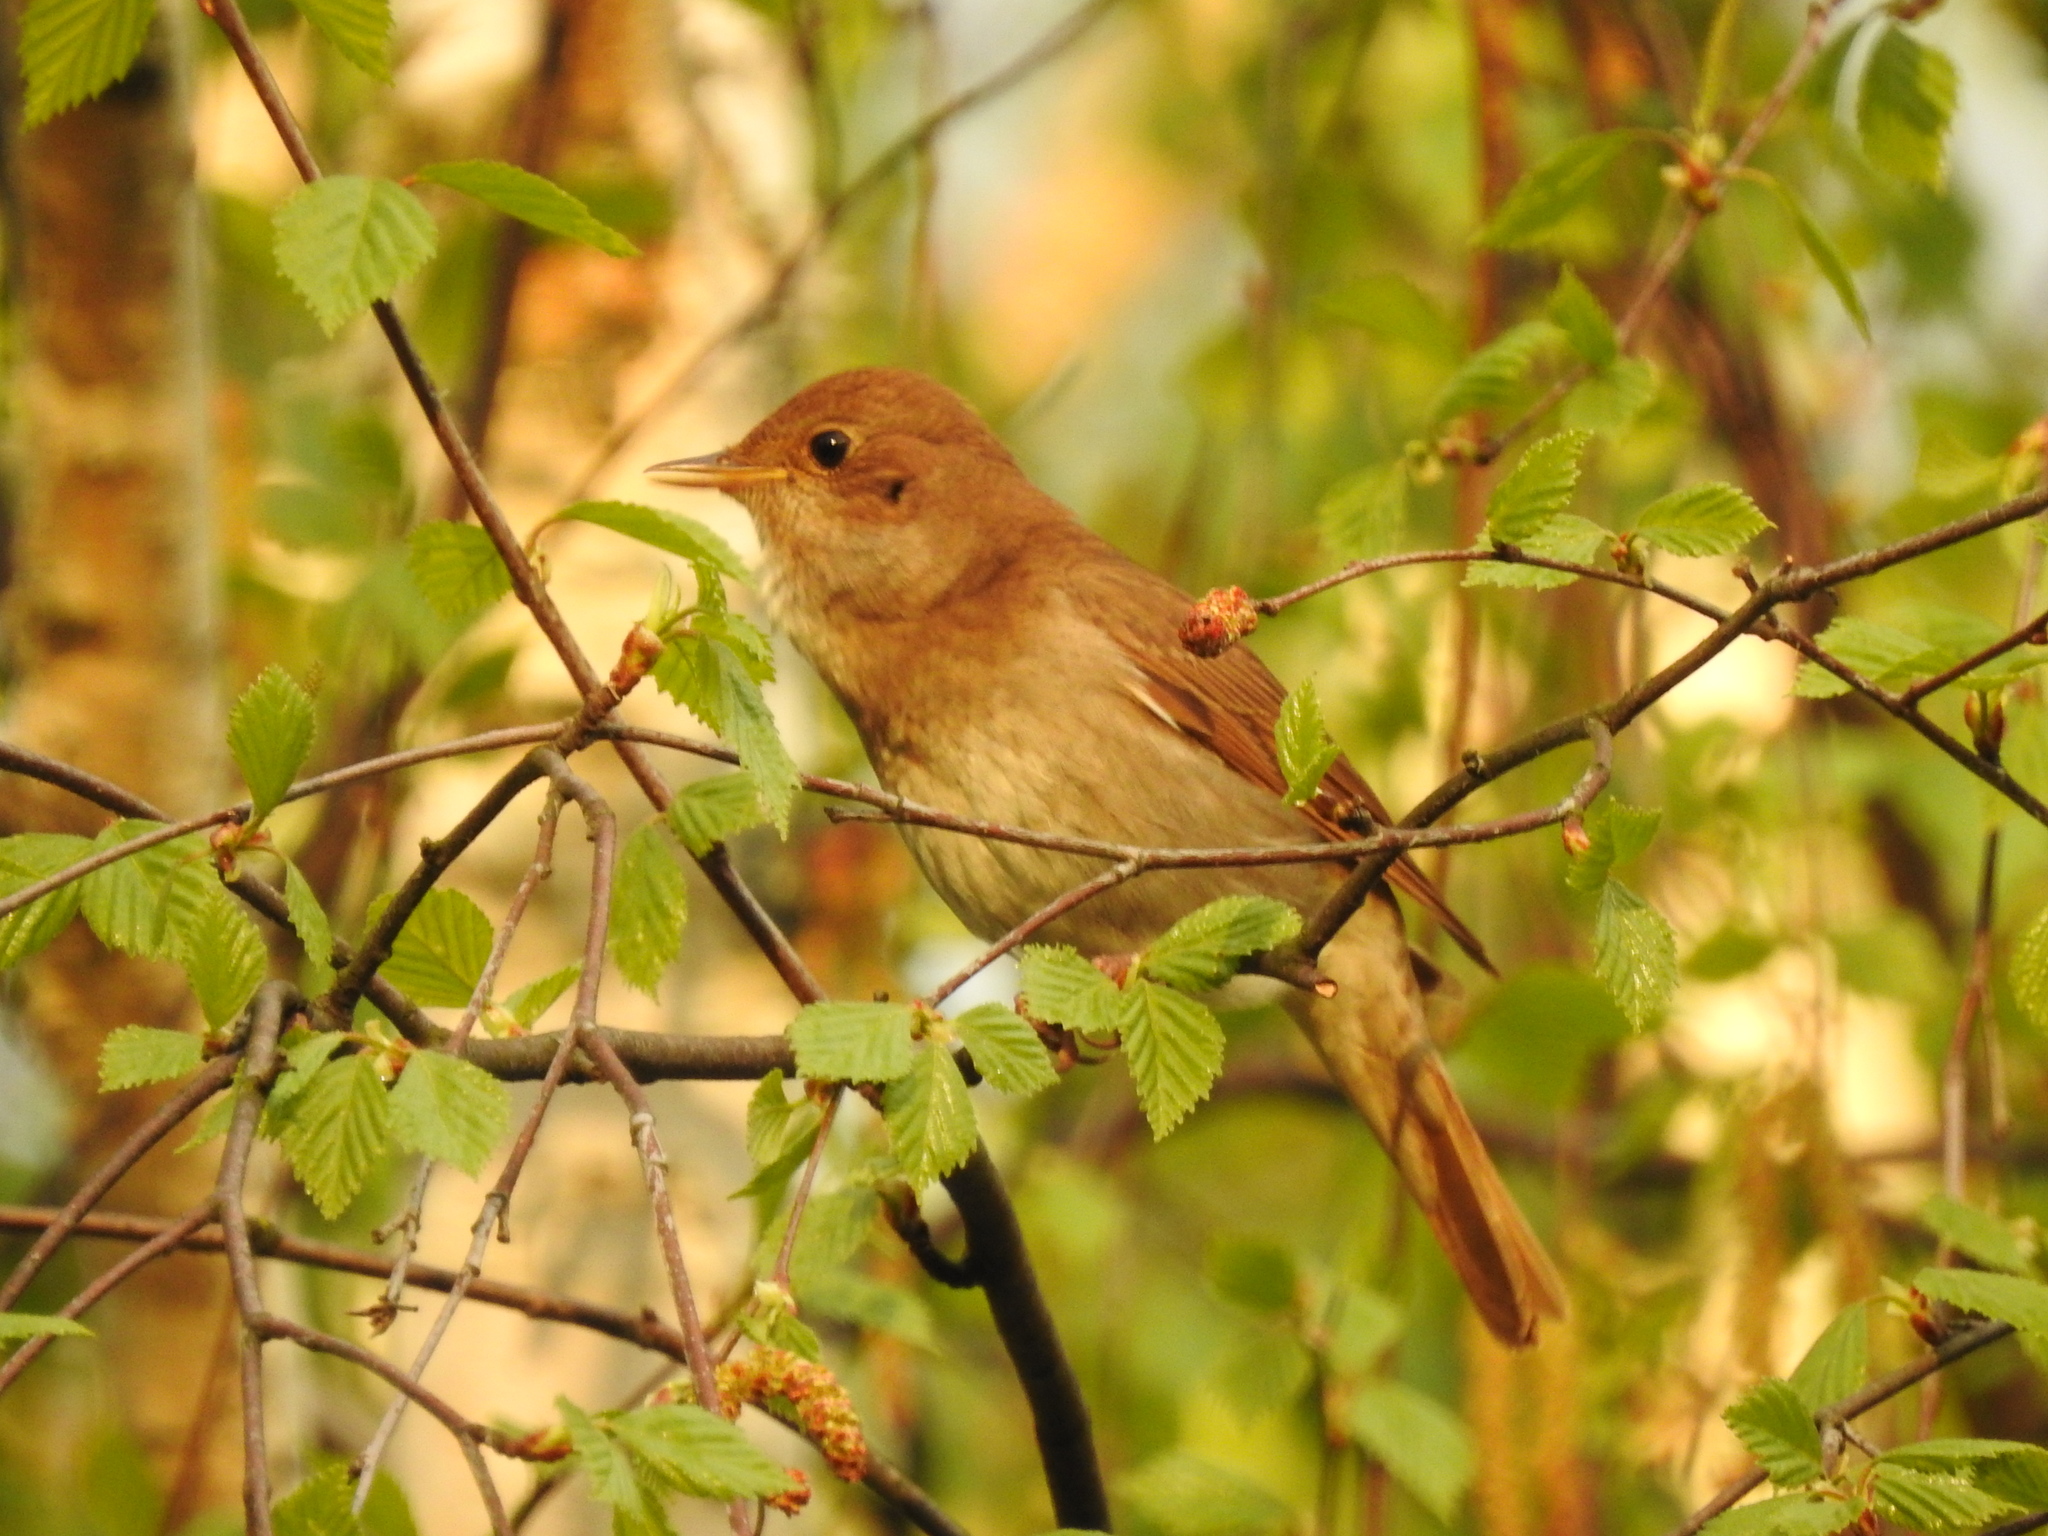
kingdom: Animalia
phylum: Chordata
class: Aves
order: Passeriformes
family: Muscicapidae
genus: Luscinia
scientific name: Luscinia luscinia
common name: Thrush nightingale
